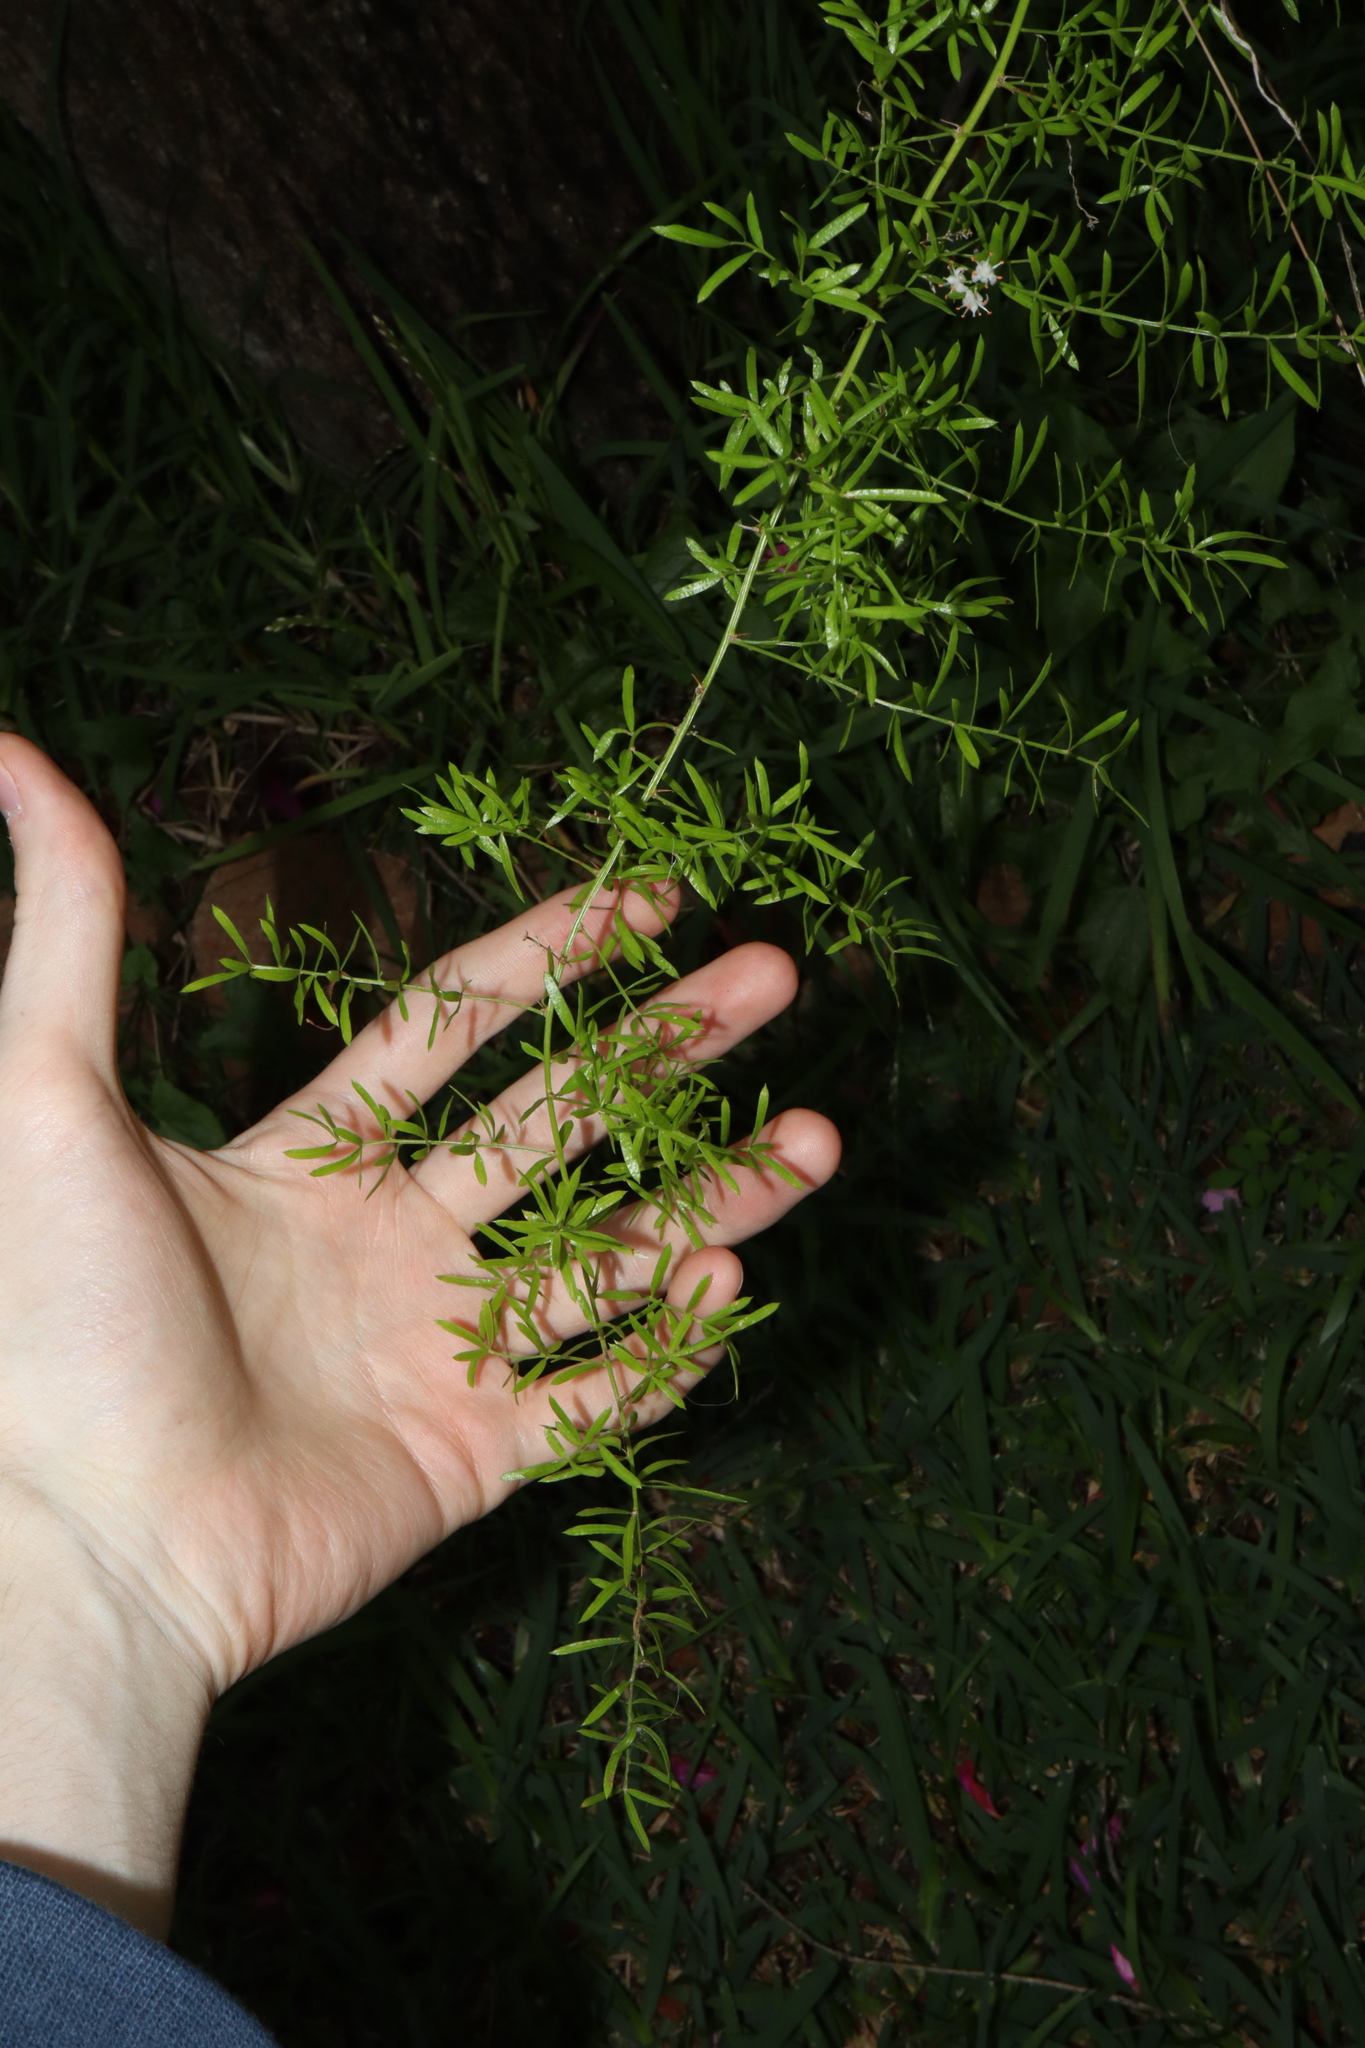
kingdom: Plantae
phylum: Tracheophyta
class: Liliopsida
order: Asparagales
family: Asparagaceae
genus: Asparagus
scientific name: Asparagus aethiopicus
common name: Sprenger's asparagus fern
